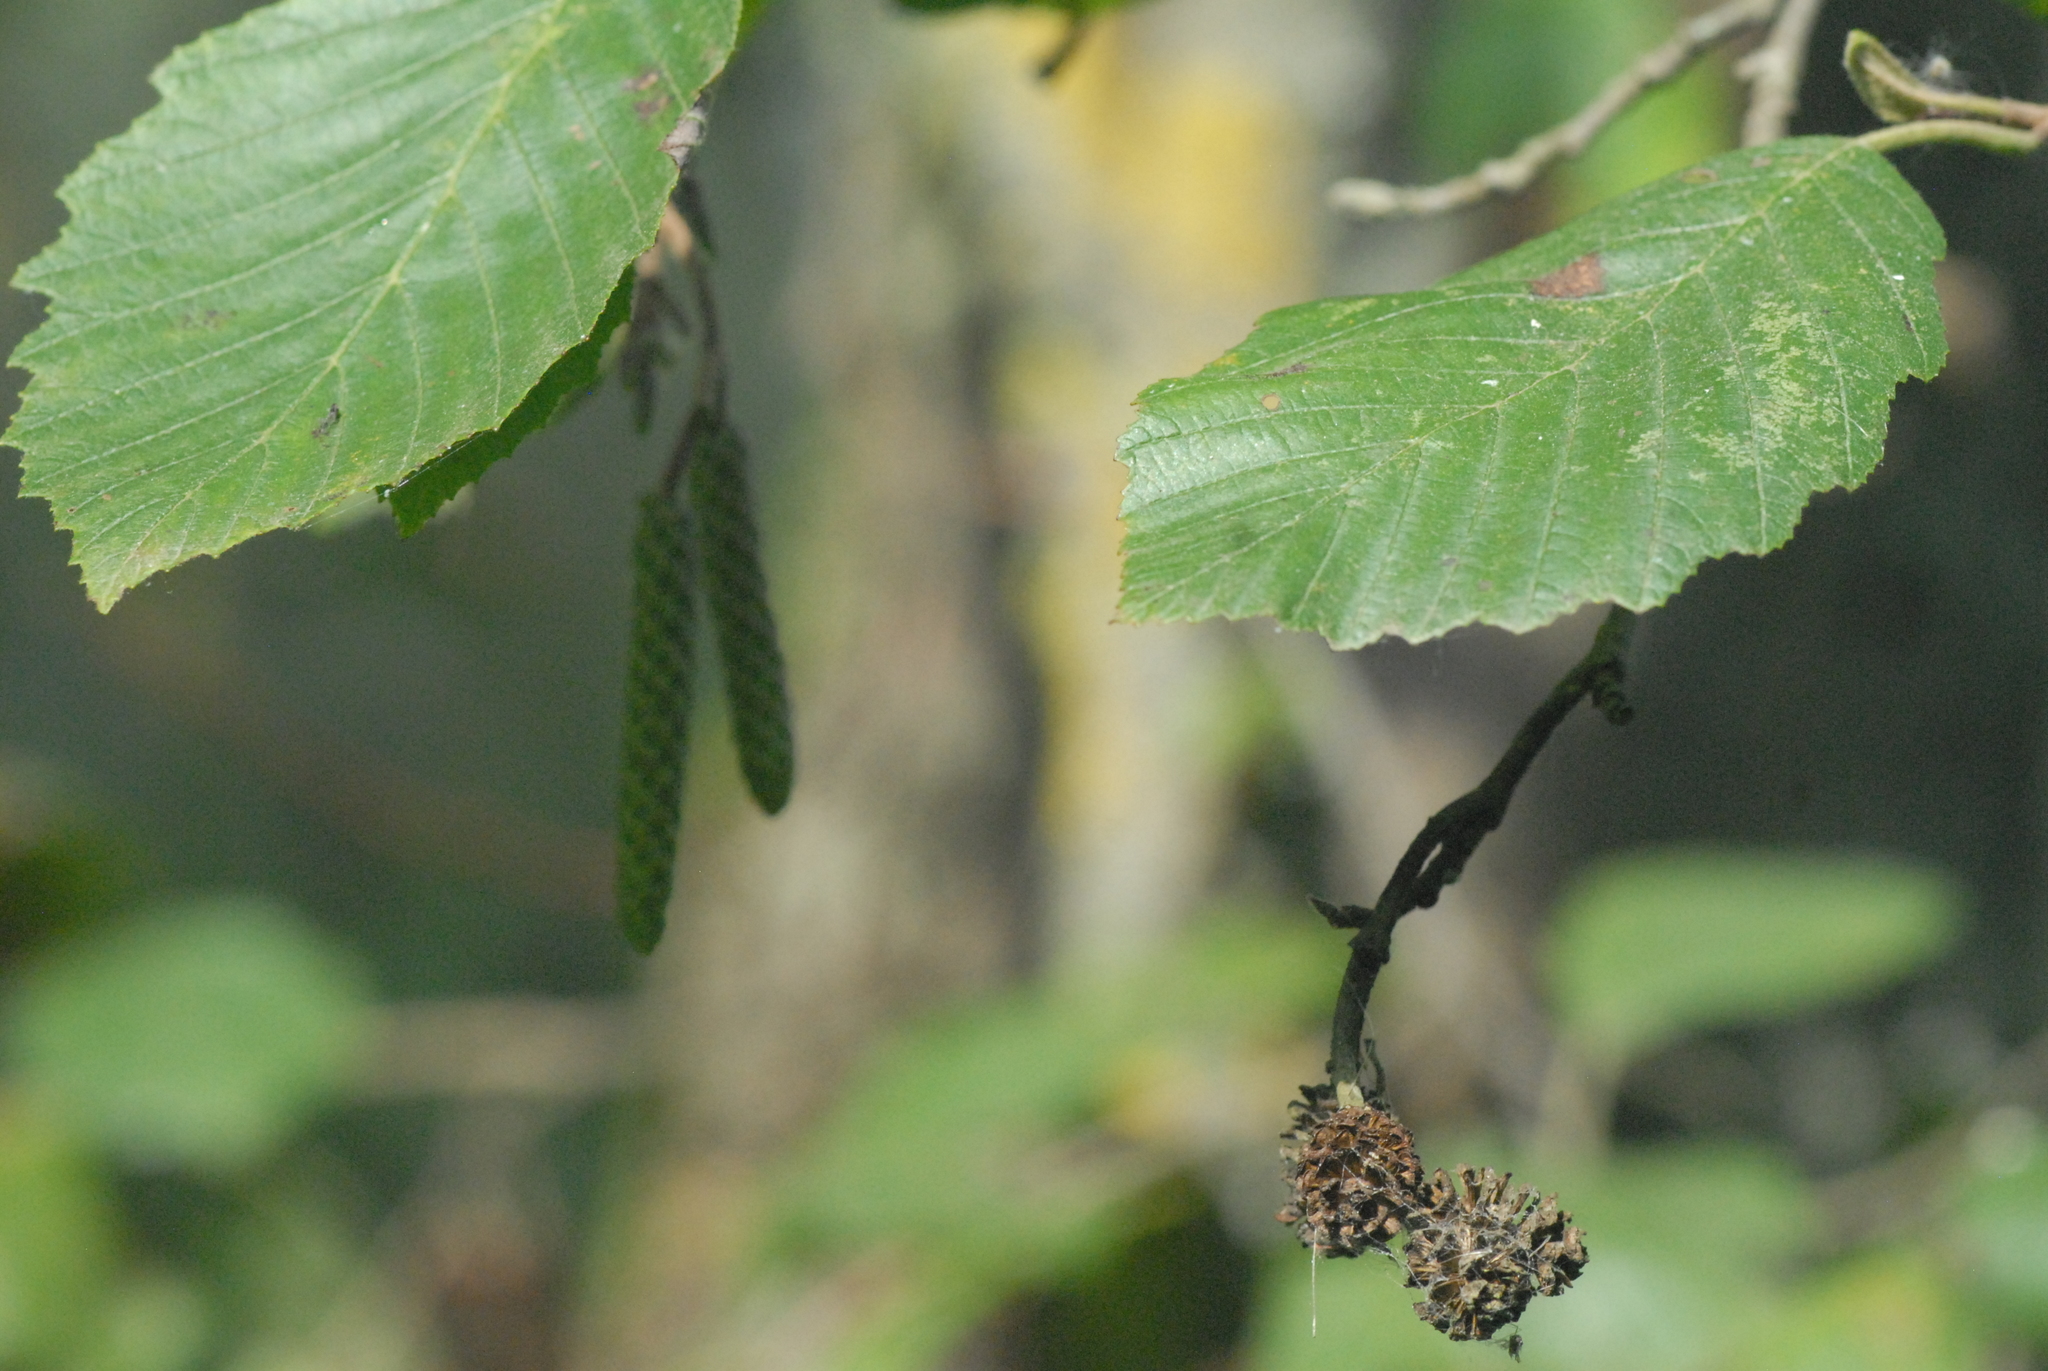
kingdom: Plantae
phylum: Tracheophyta
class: Magnoliopsida
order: Fagales
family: Betulaceae
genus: Alnus
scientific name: Alnus incana
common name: Grey alder
